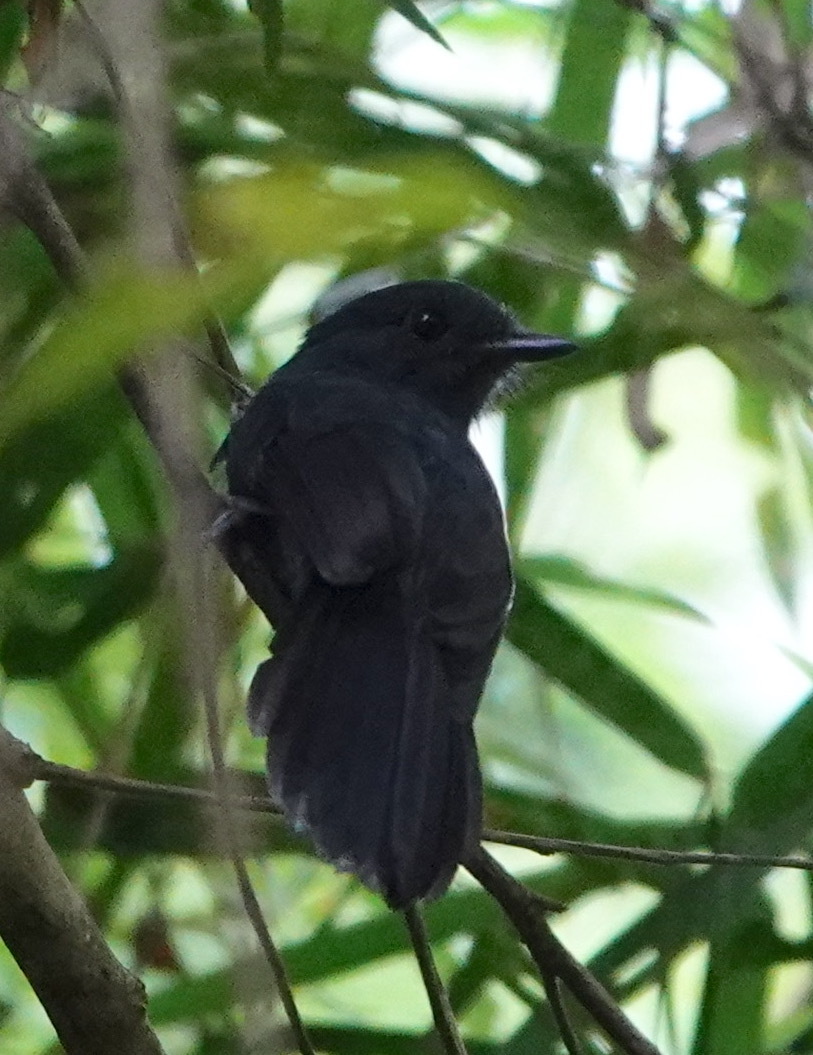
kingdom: Animalia
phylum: Chordata
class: Aves
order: Passeriformes
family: Thamnophilidae
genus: Thamnomanes
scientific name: Thamnomanes schistogynus
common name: Bluish-slate antshrike
